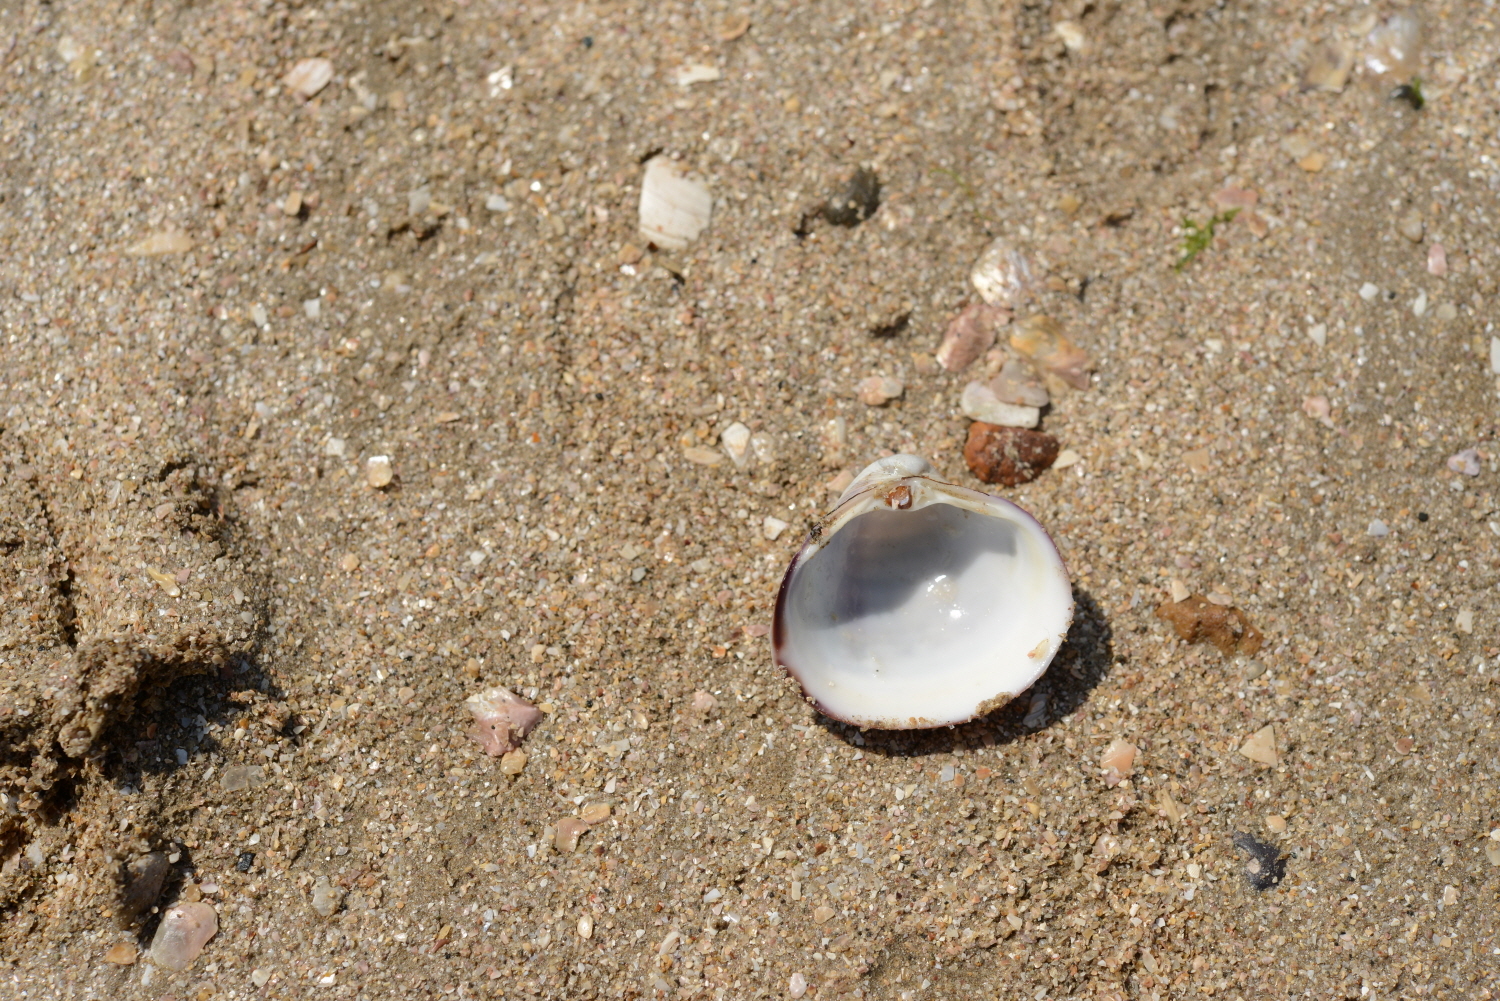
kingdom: Animalia
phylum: Mollusca
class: Bivalvia
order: Venerida
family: Mactridae
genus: Mactra
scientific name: Mactra quadrangularis
